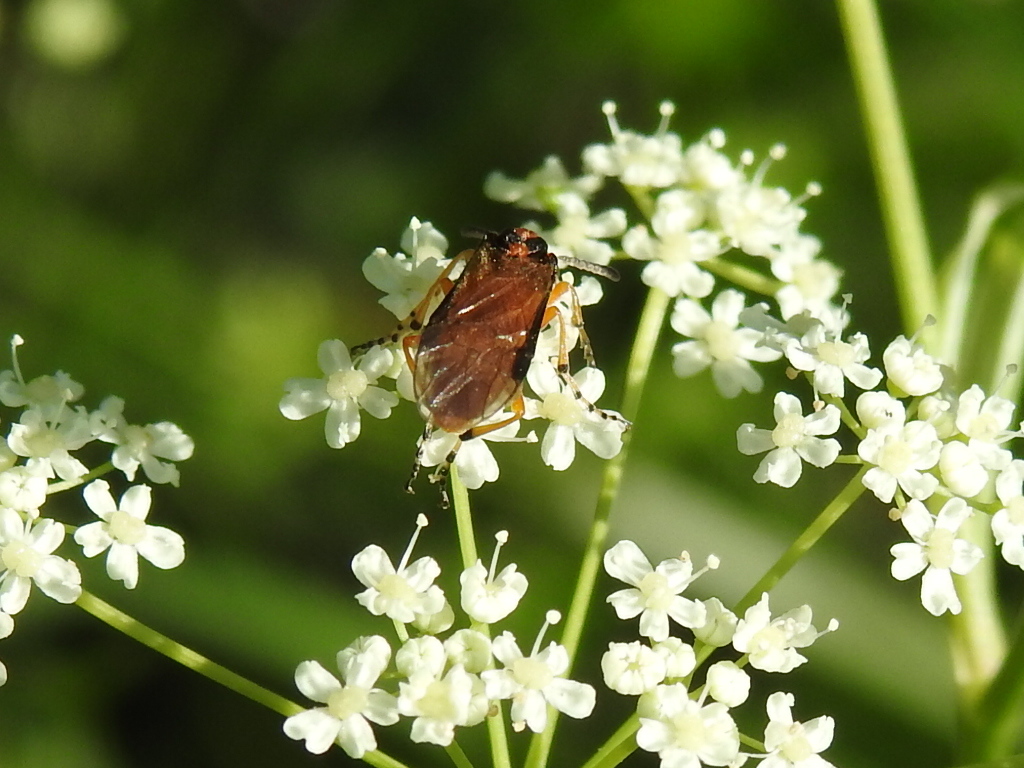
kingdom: Animalia
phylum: Arthropoda
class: Insecta
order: Hymenoptera
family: Tenthredinidae
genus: Athalia
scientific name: Athalia rosae
